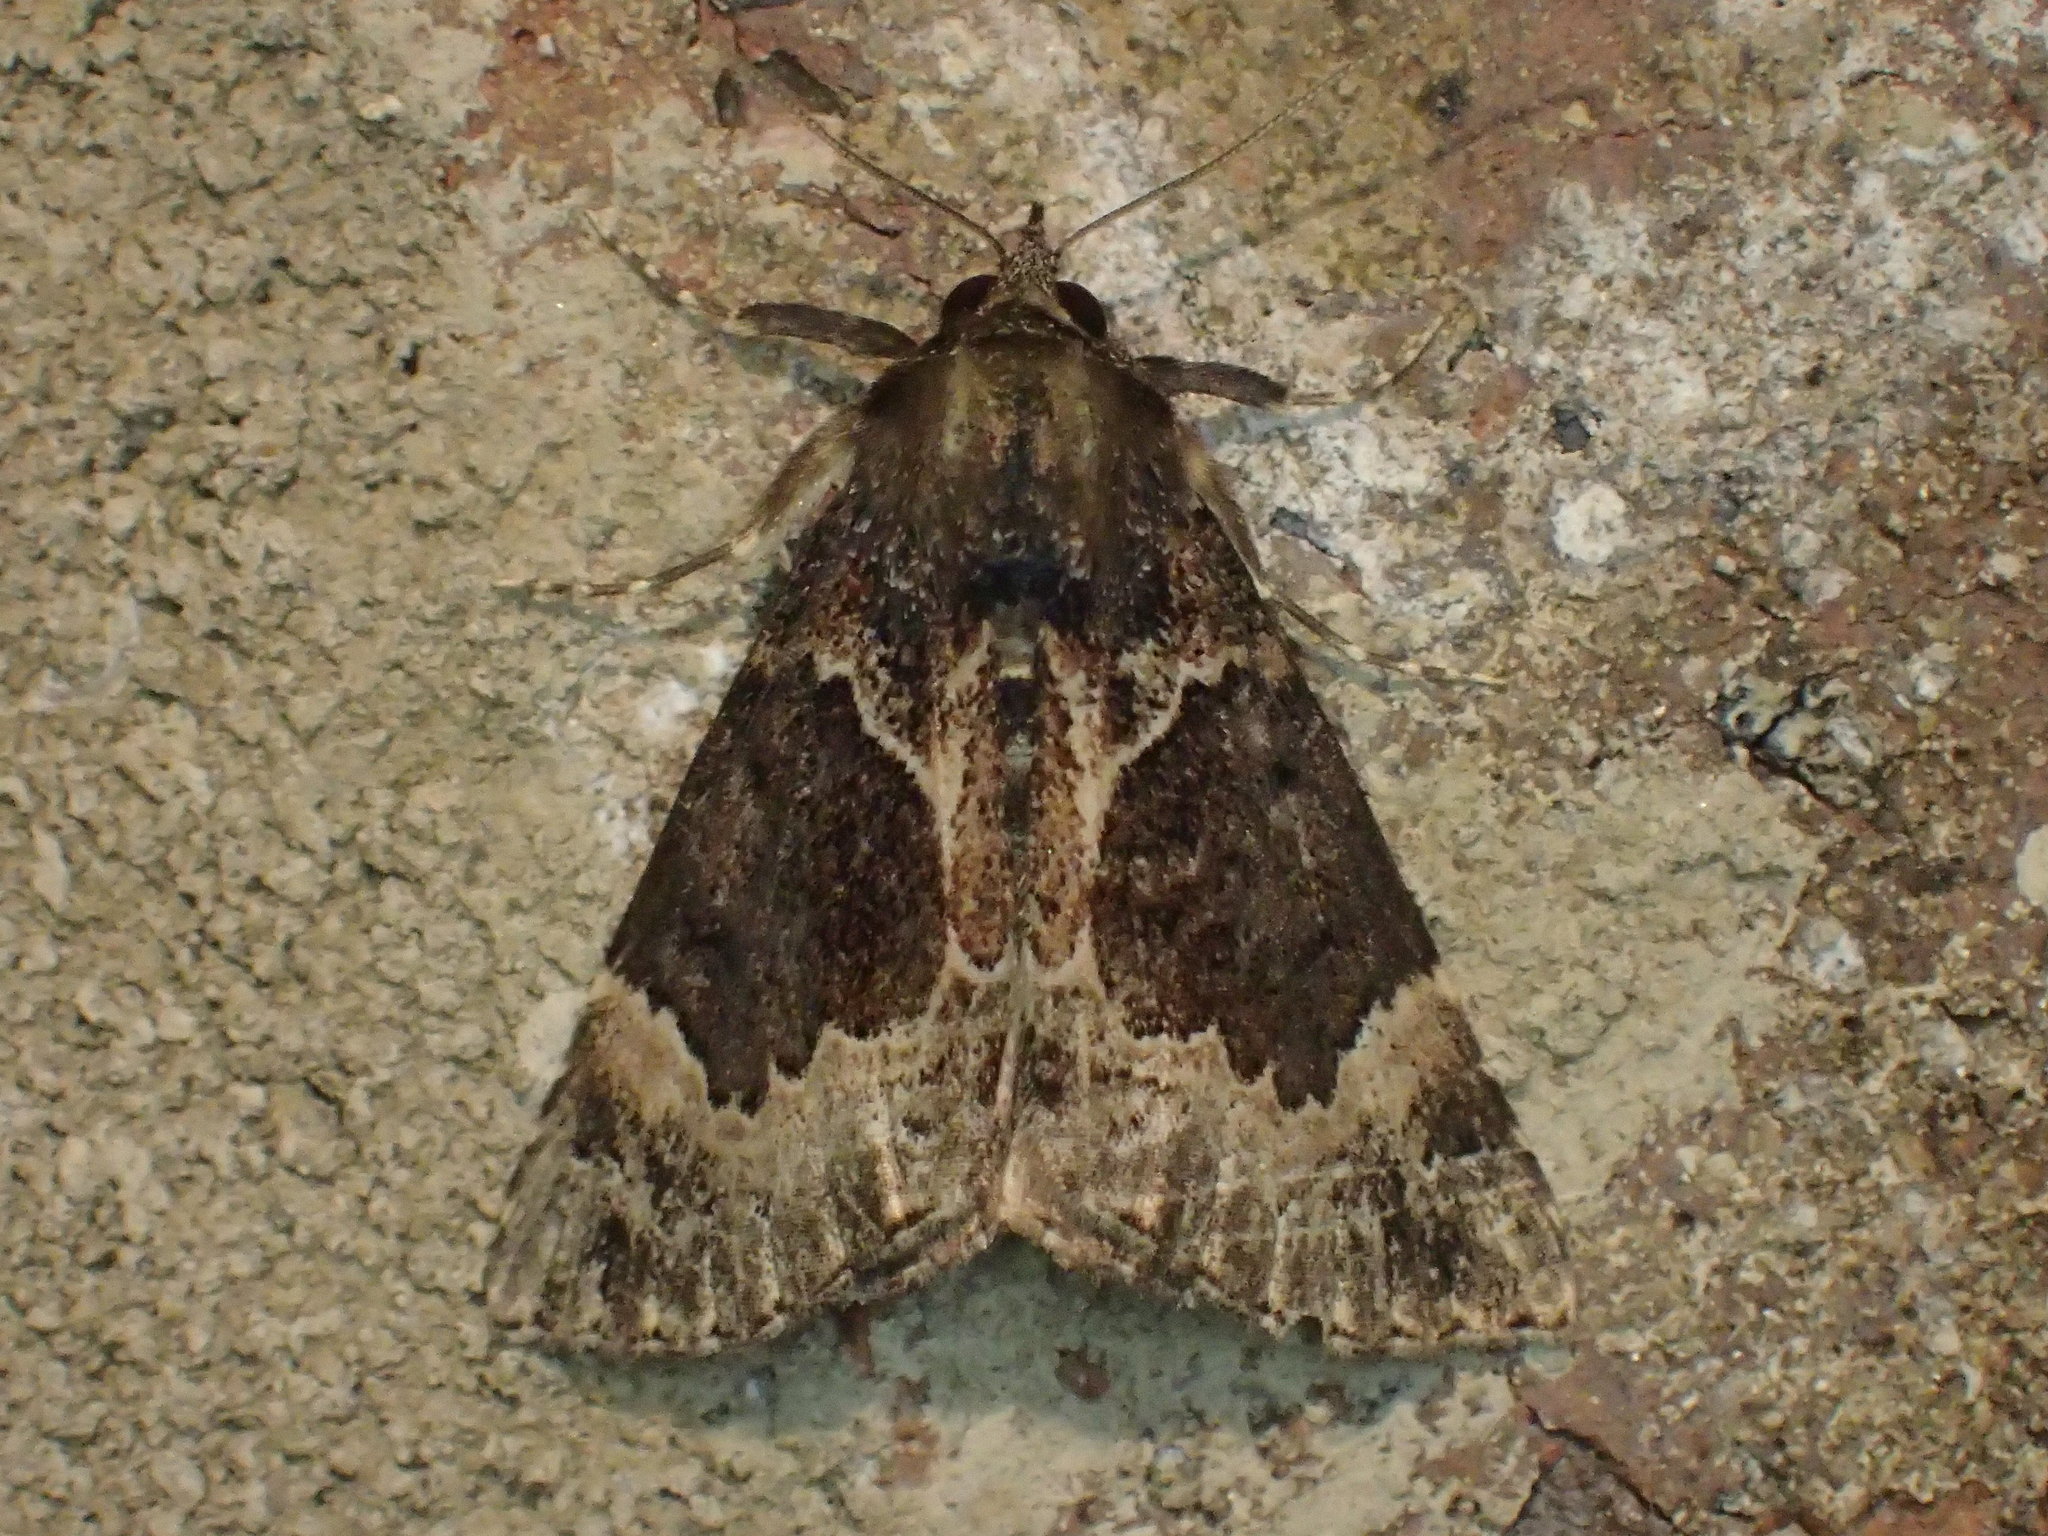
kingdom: Animalia
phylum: Arthropoda
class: Insecta
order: Lepidoptera
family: Erebidae
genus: Hypena
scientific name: Hypena palparia
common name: Mottled bomolocha moth
